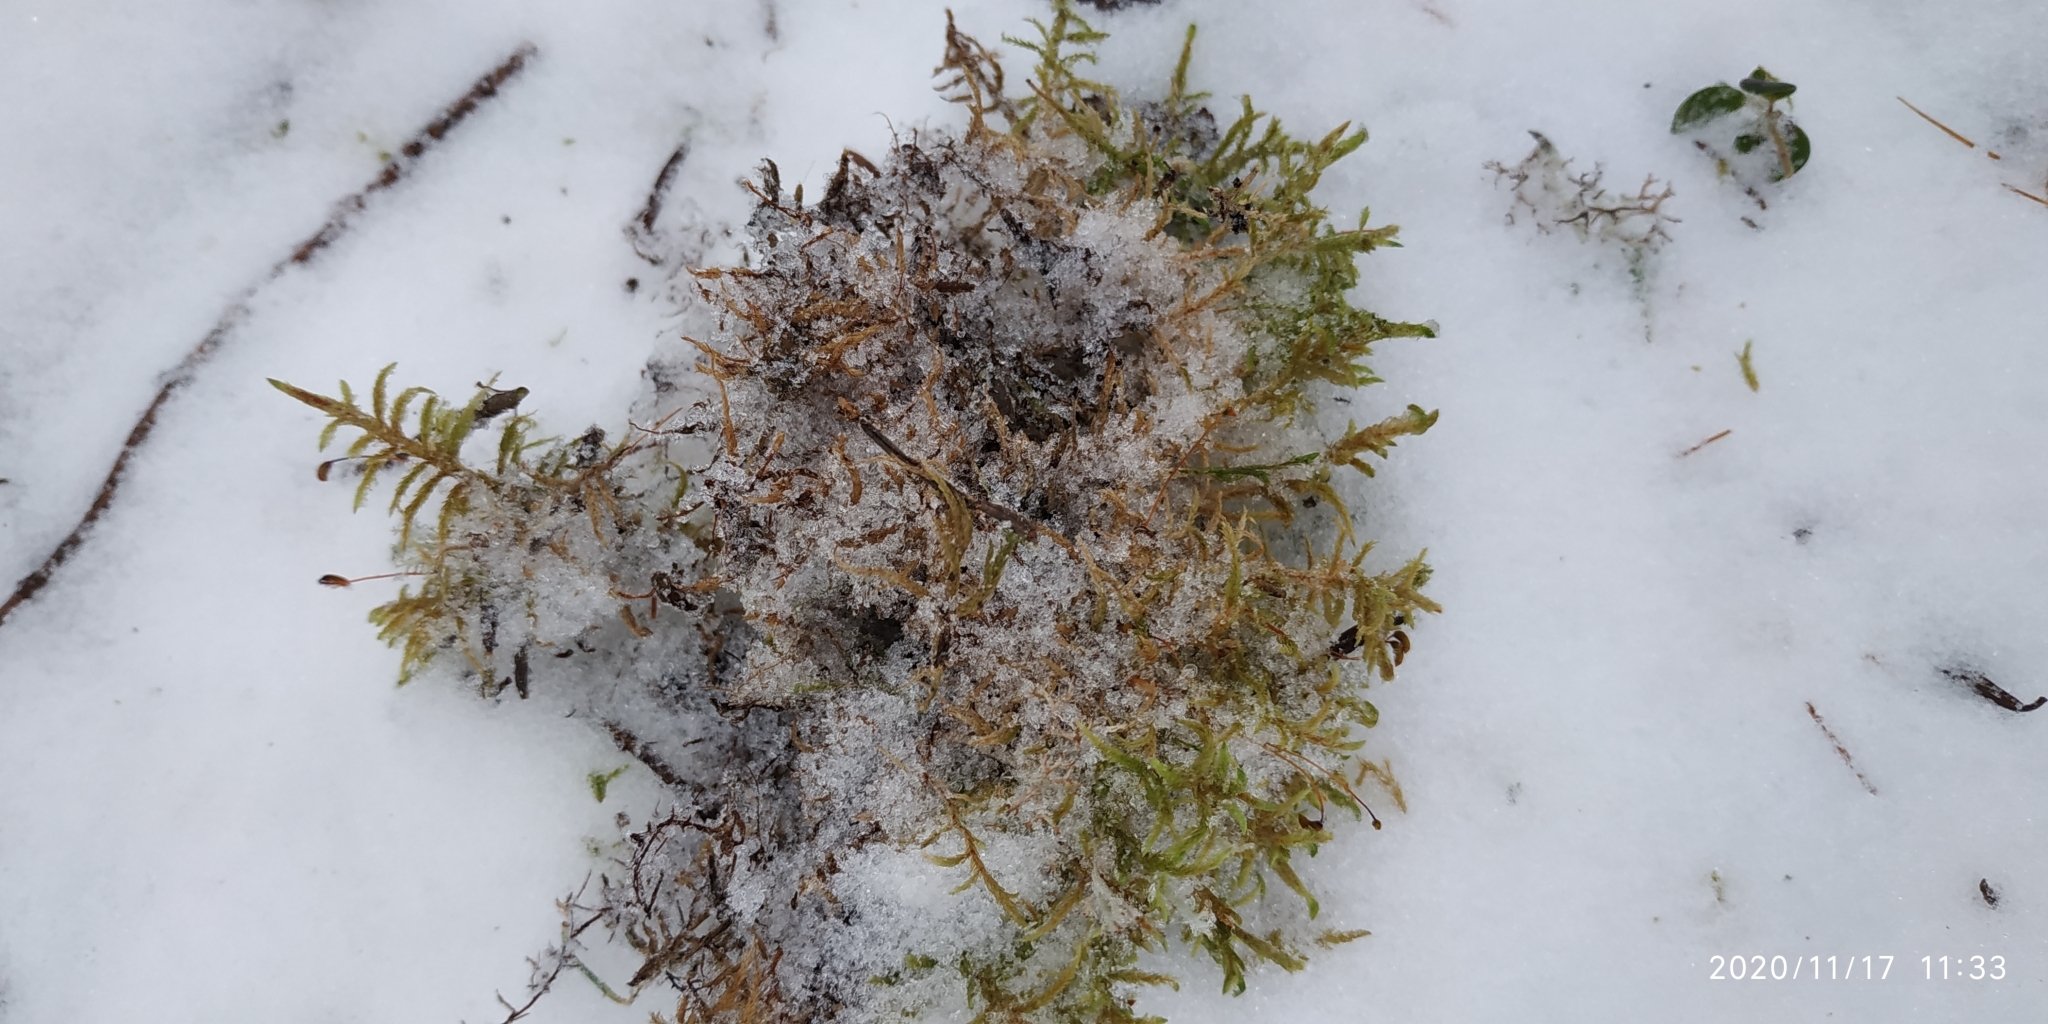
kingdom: Plantae
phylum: Bryophyta
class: Bryopsida
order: Hypnales
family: Hylocomiaceae
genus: Pleurozium
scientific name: Pleurozium schreberi
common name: Red-stemmed feather moss
